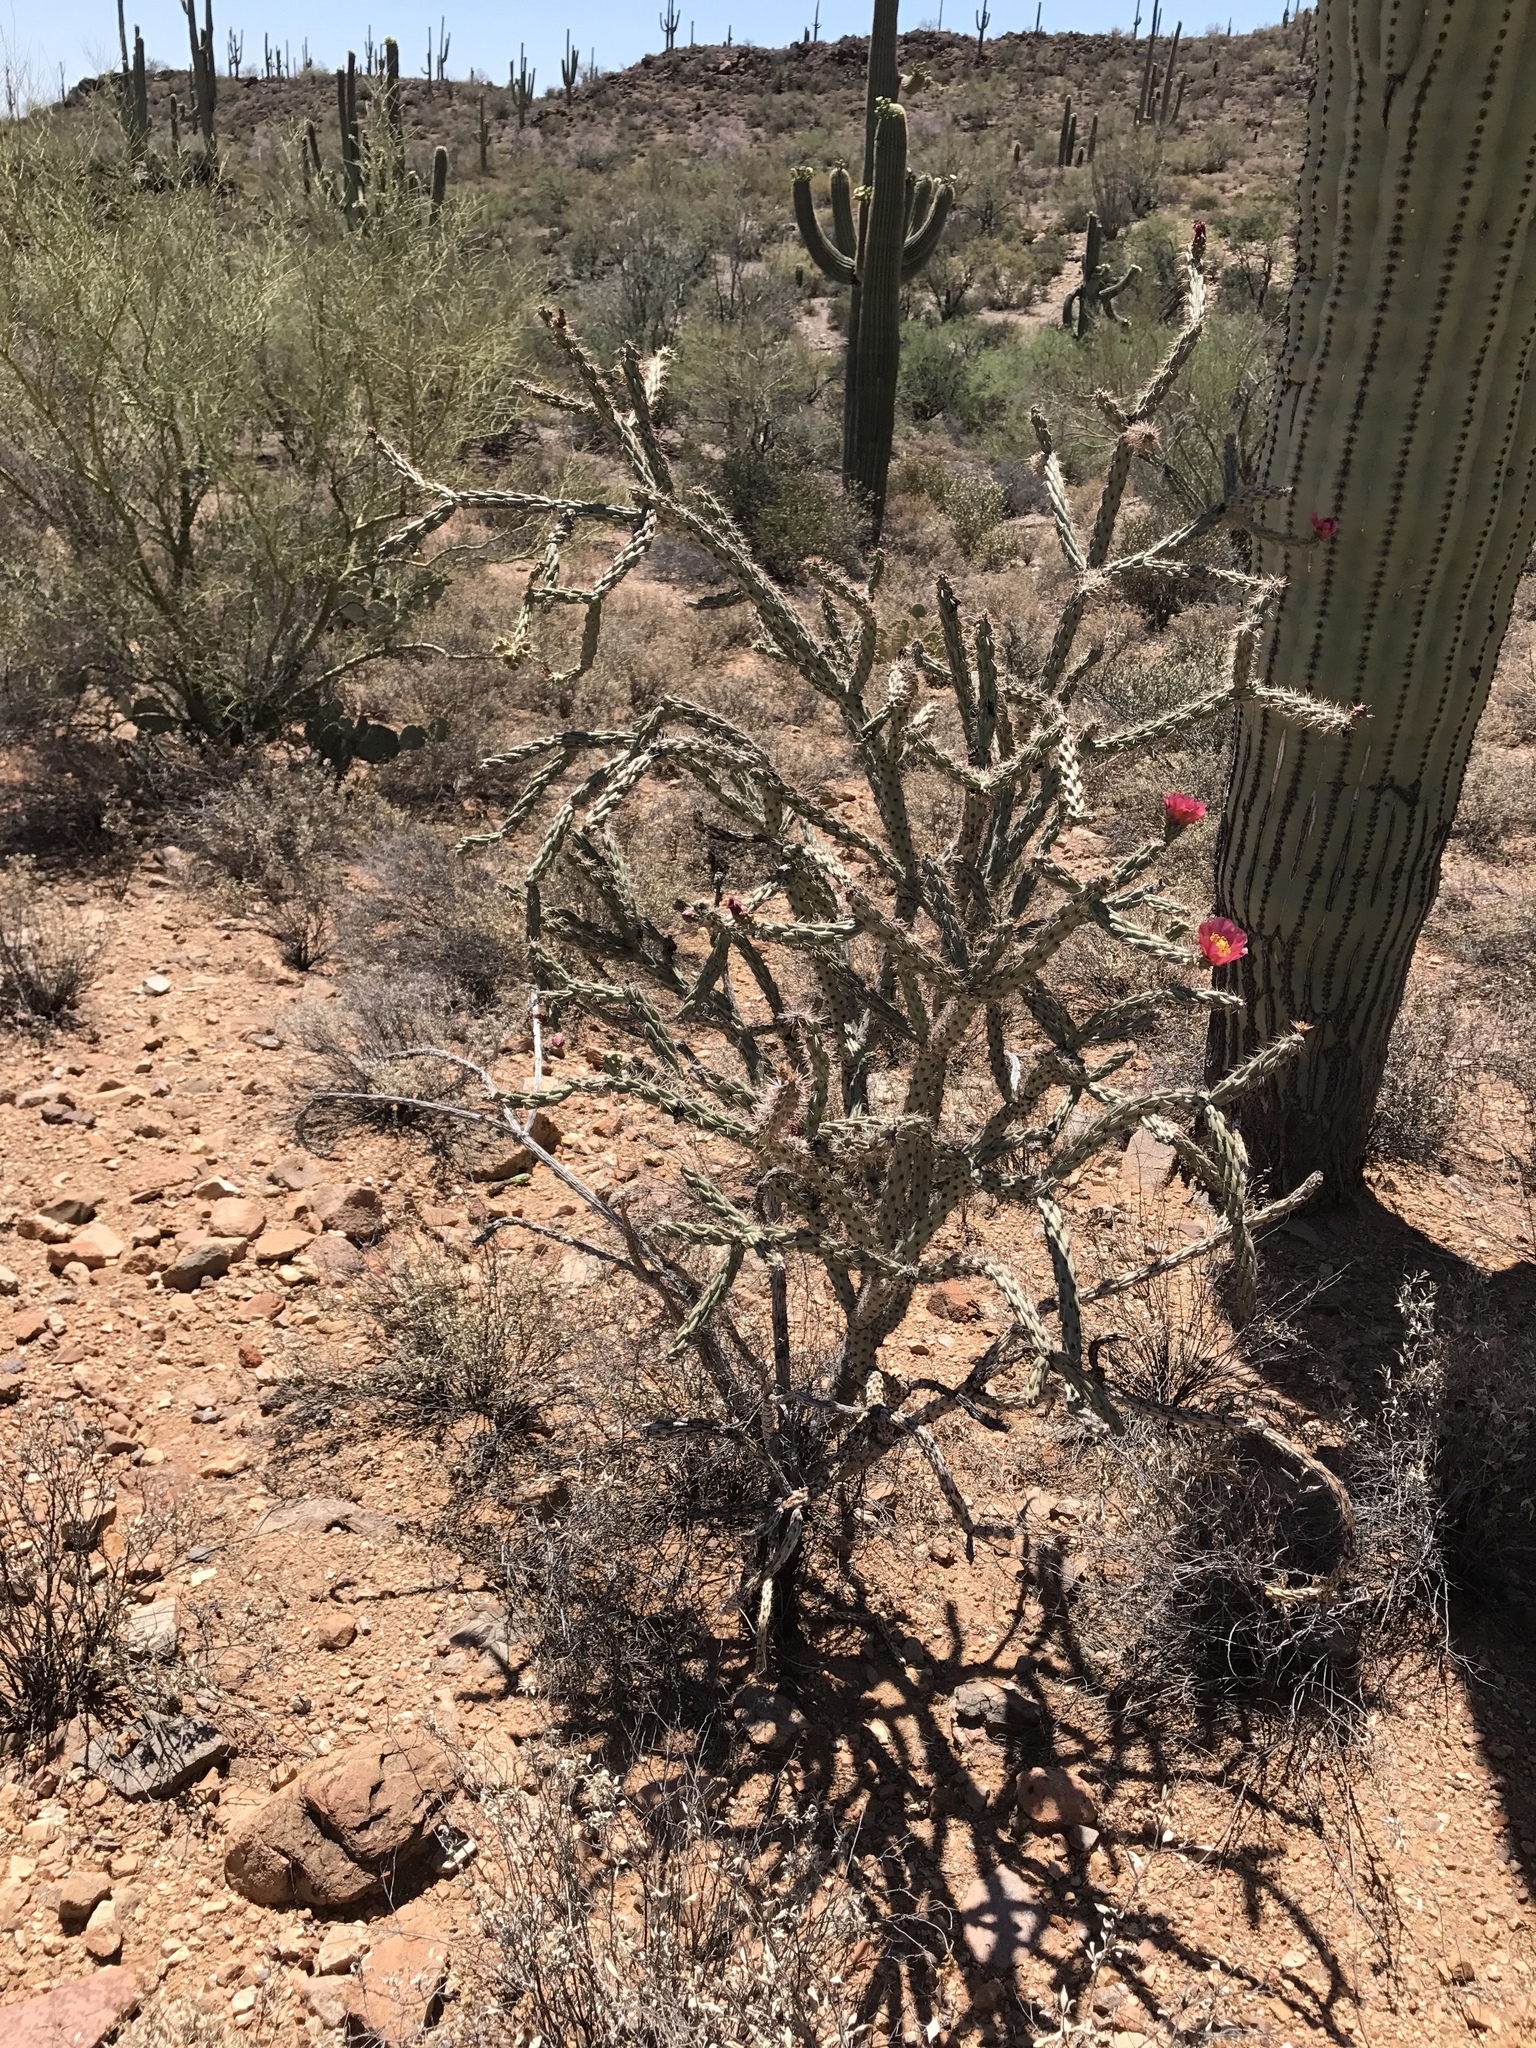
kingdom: Plantae
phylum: Tracheophyta
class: Magnoliopsida
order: Caryophyllales
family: Cactaceae
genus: Cylindropuntia
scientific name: Cylindropuntia thurberi
